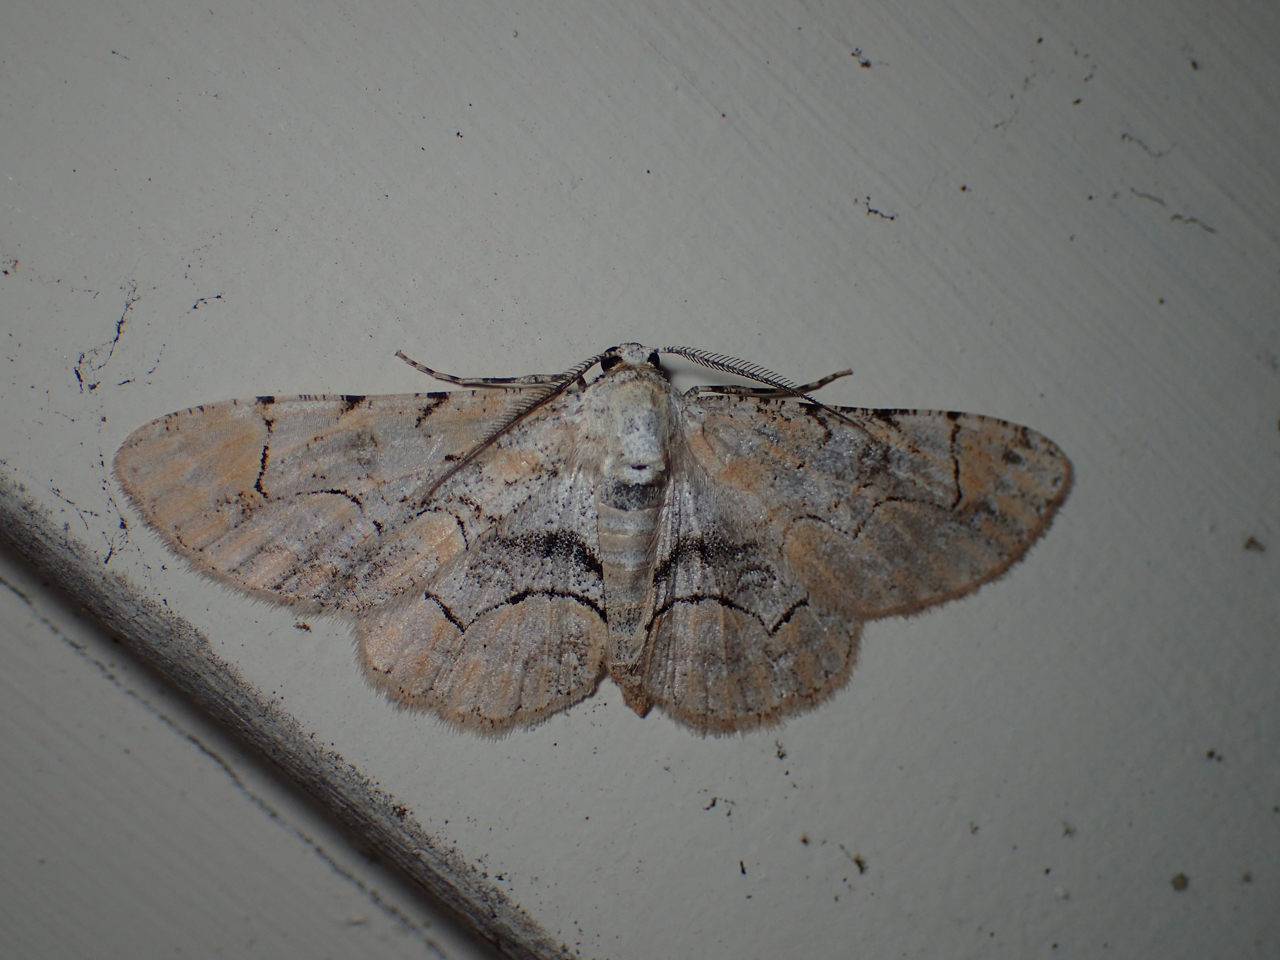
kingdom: Animalia
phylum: Arthropoda
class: Insecta
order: Lepidoptera
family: Geometridae
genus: Iridopsis
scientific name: Iridopsis larvaria
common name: Bent-line gray
